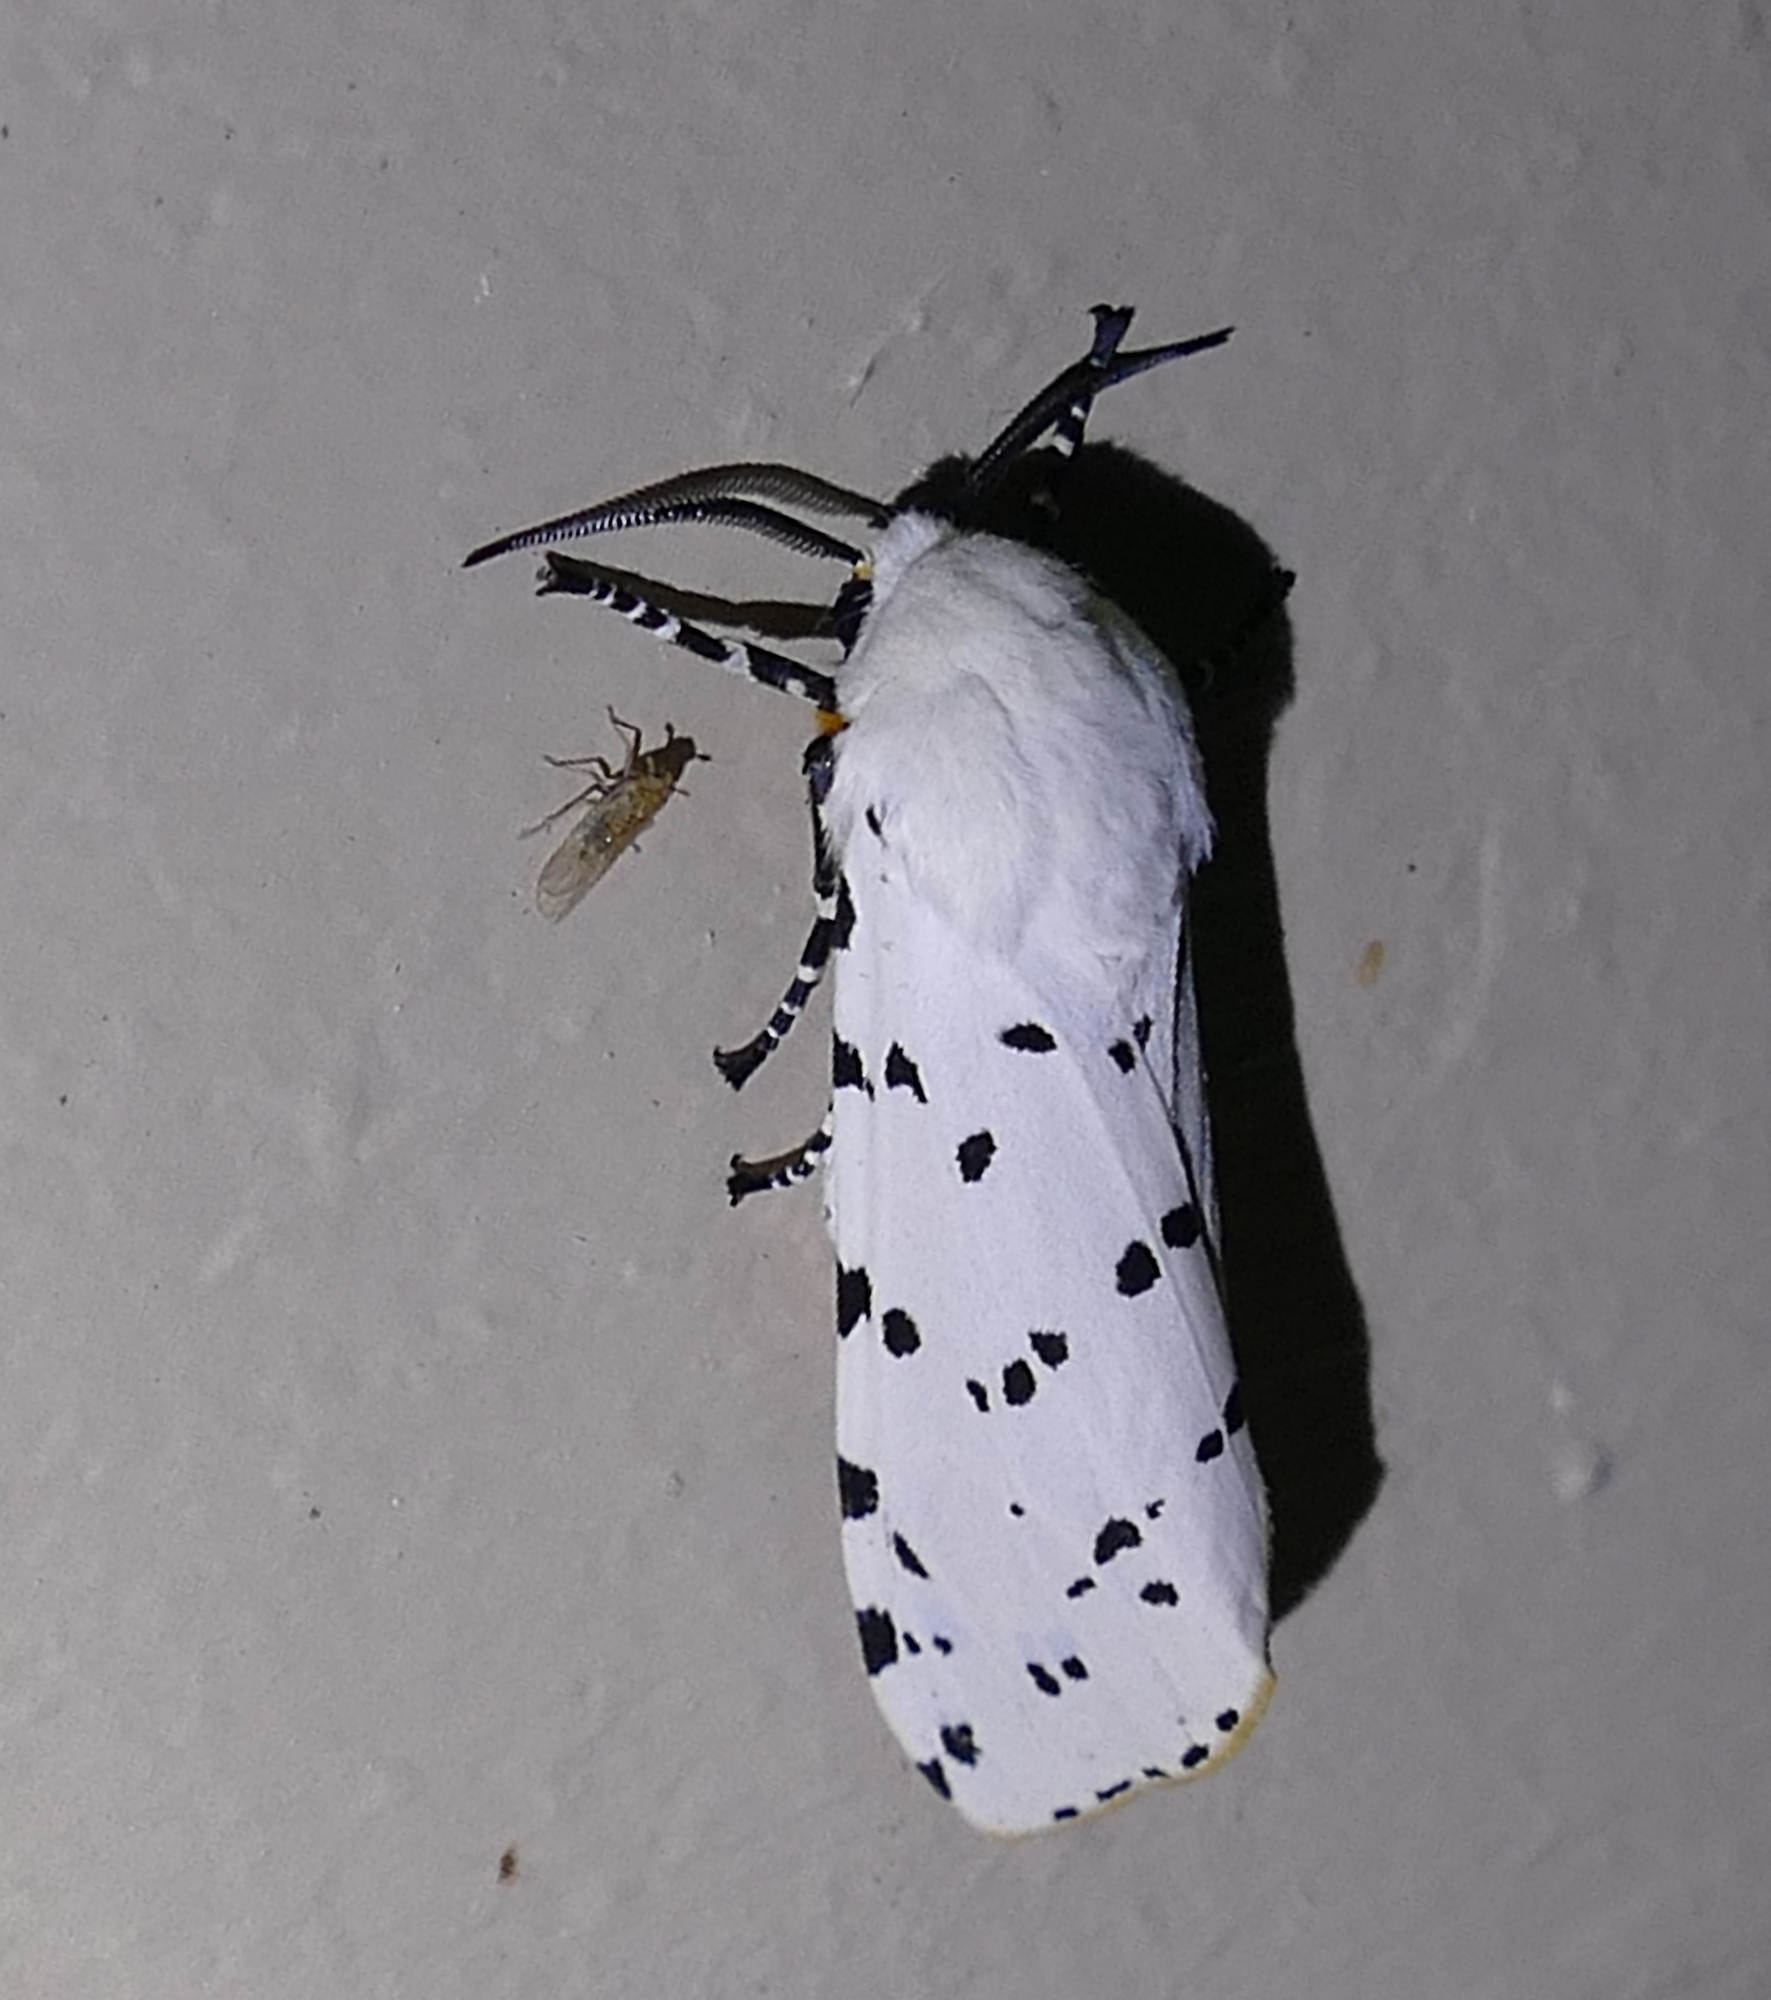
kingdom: Animalia
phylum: Arthropoda
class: Insecta
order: Lepidoptera
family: Erebidae
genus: Estigmene
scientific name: Estigmene acrea
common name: Salt marsh moth
